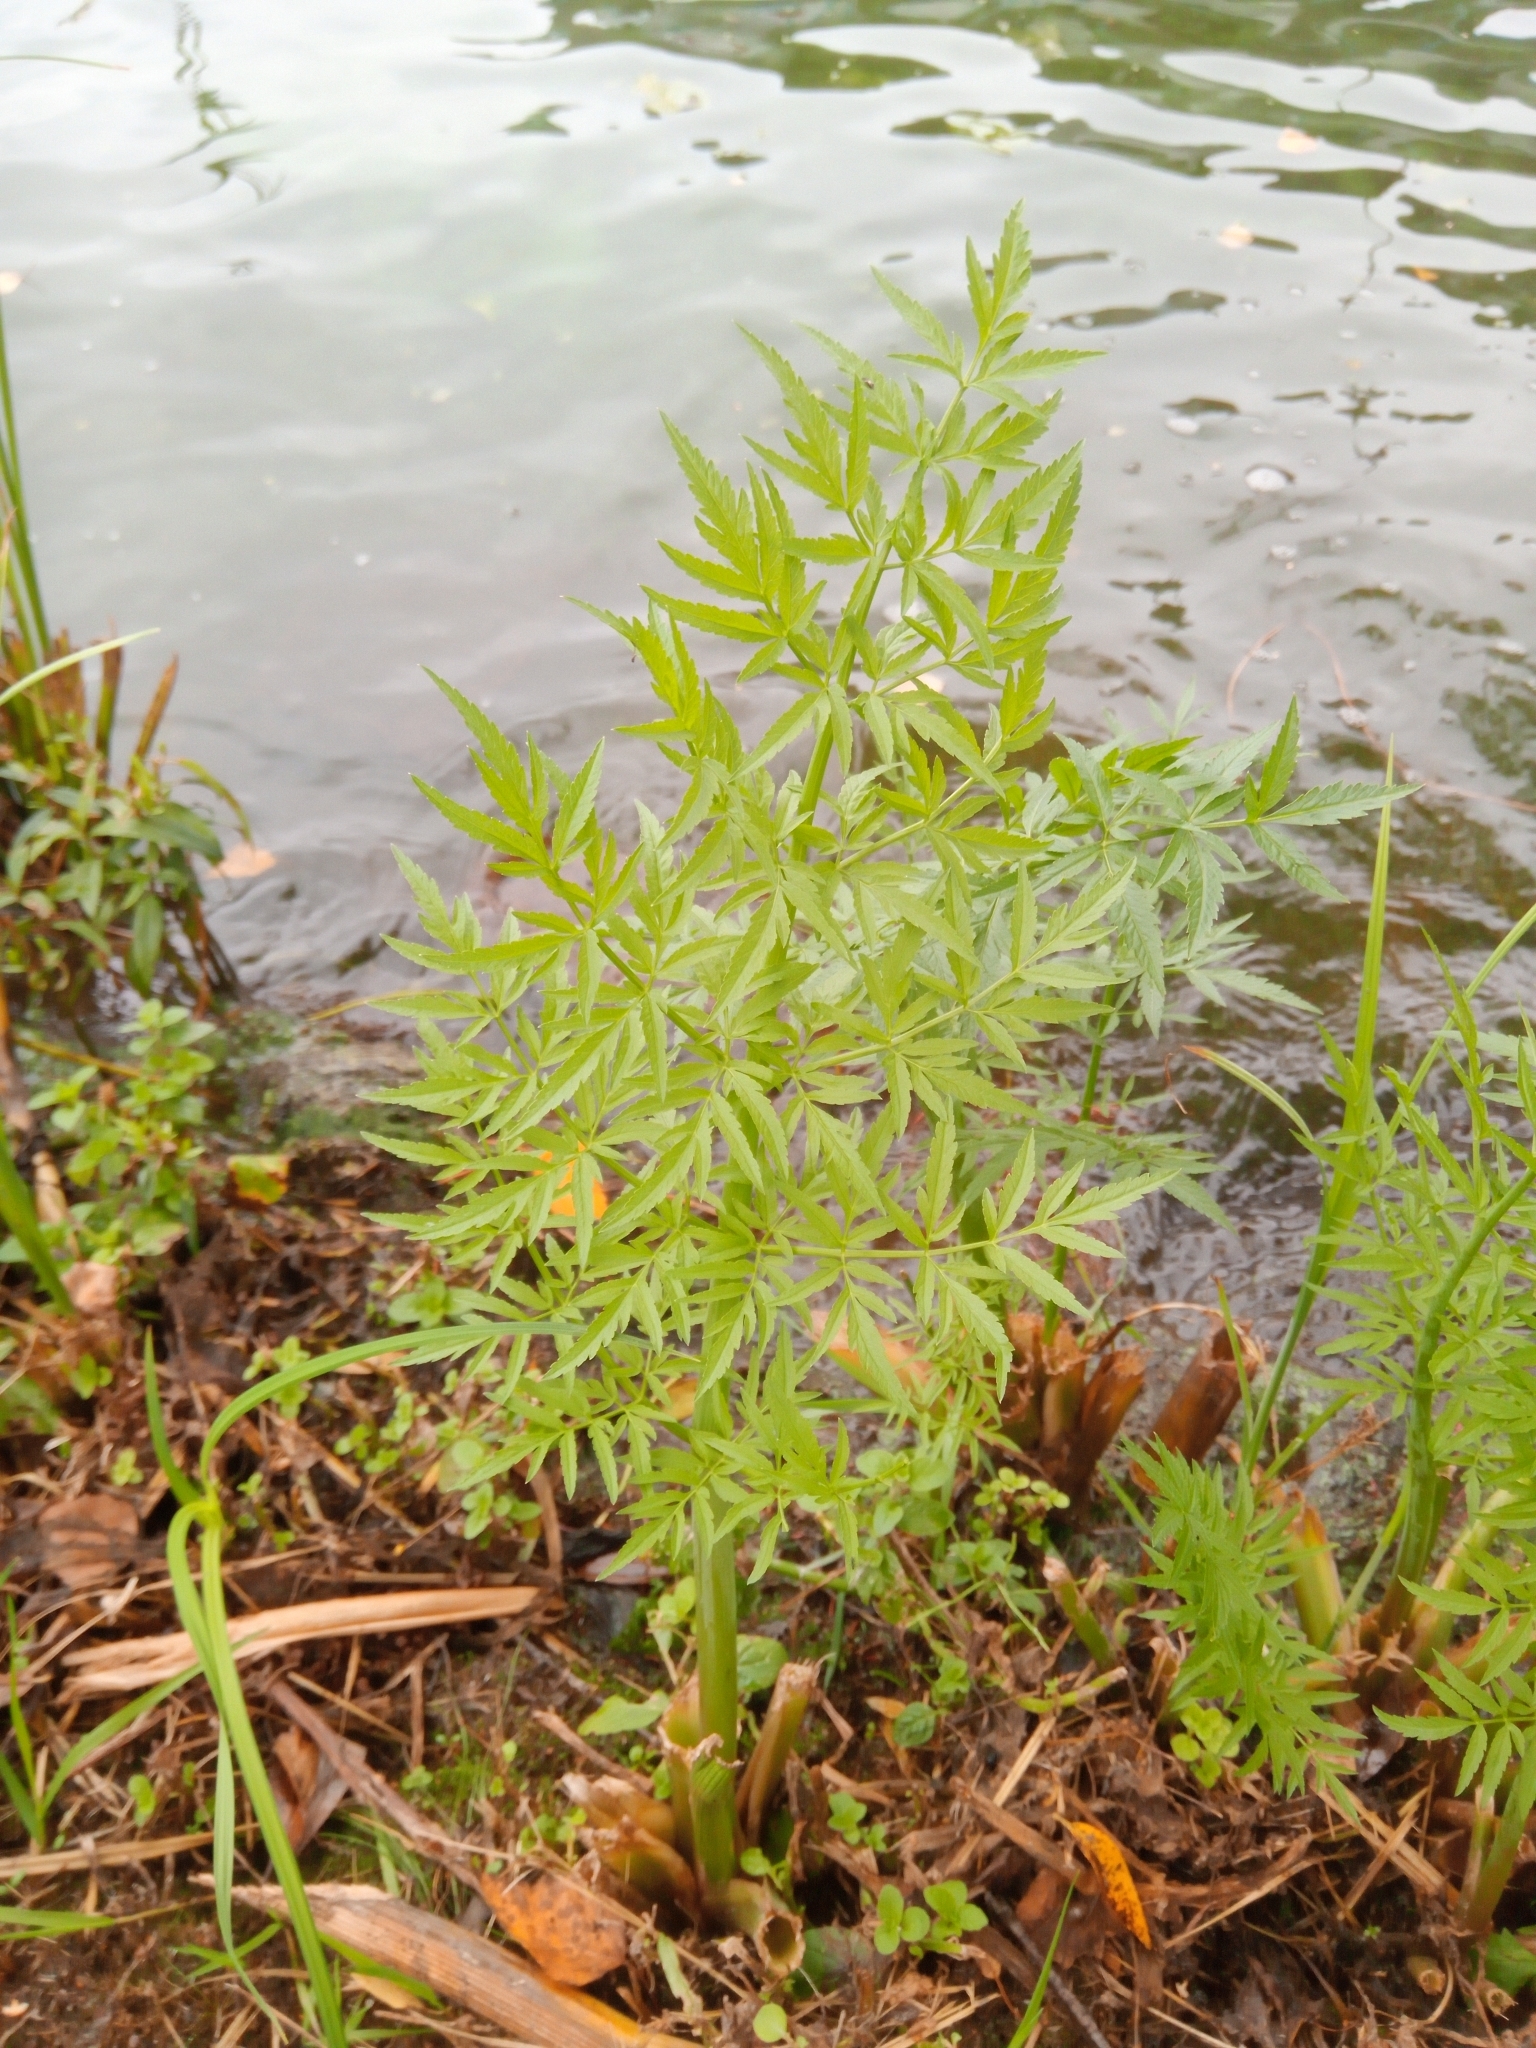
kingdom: Plantae
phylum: Tracheophyta
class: Magnoliopsida
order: Apiales
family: Apiaceae
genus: Cicuta
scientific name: Cicuta virosa
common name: Cowbane
